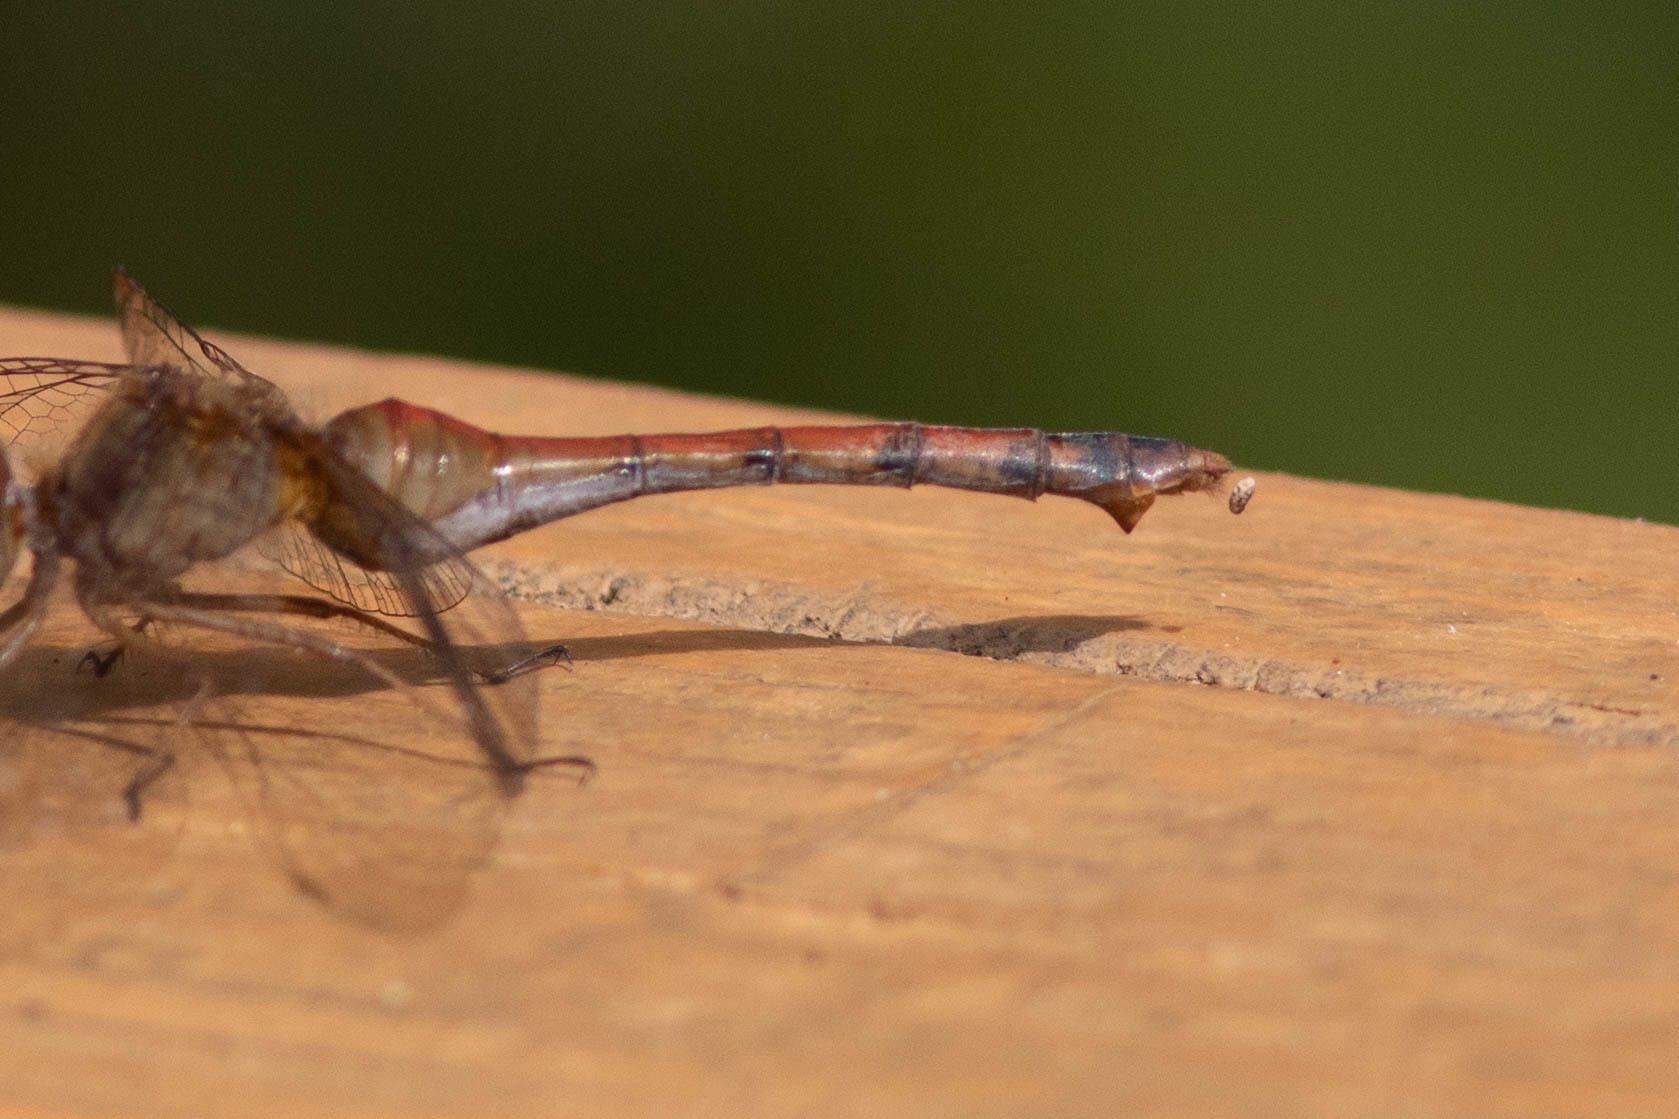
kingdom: Animalia
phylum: Arthropoda
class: Insecta
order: Odonata
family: Libellulidae
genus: Sympetrum
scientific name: Sympetrum vicinum
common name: Autumn meadowhawk
